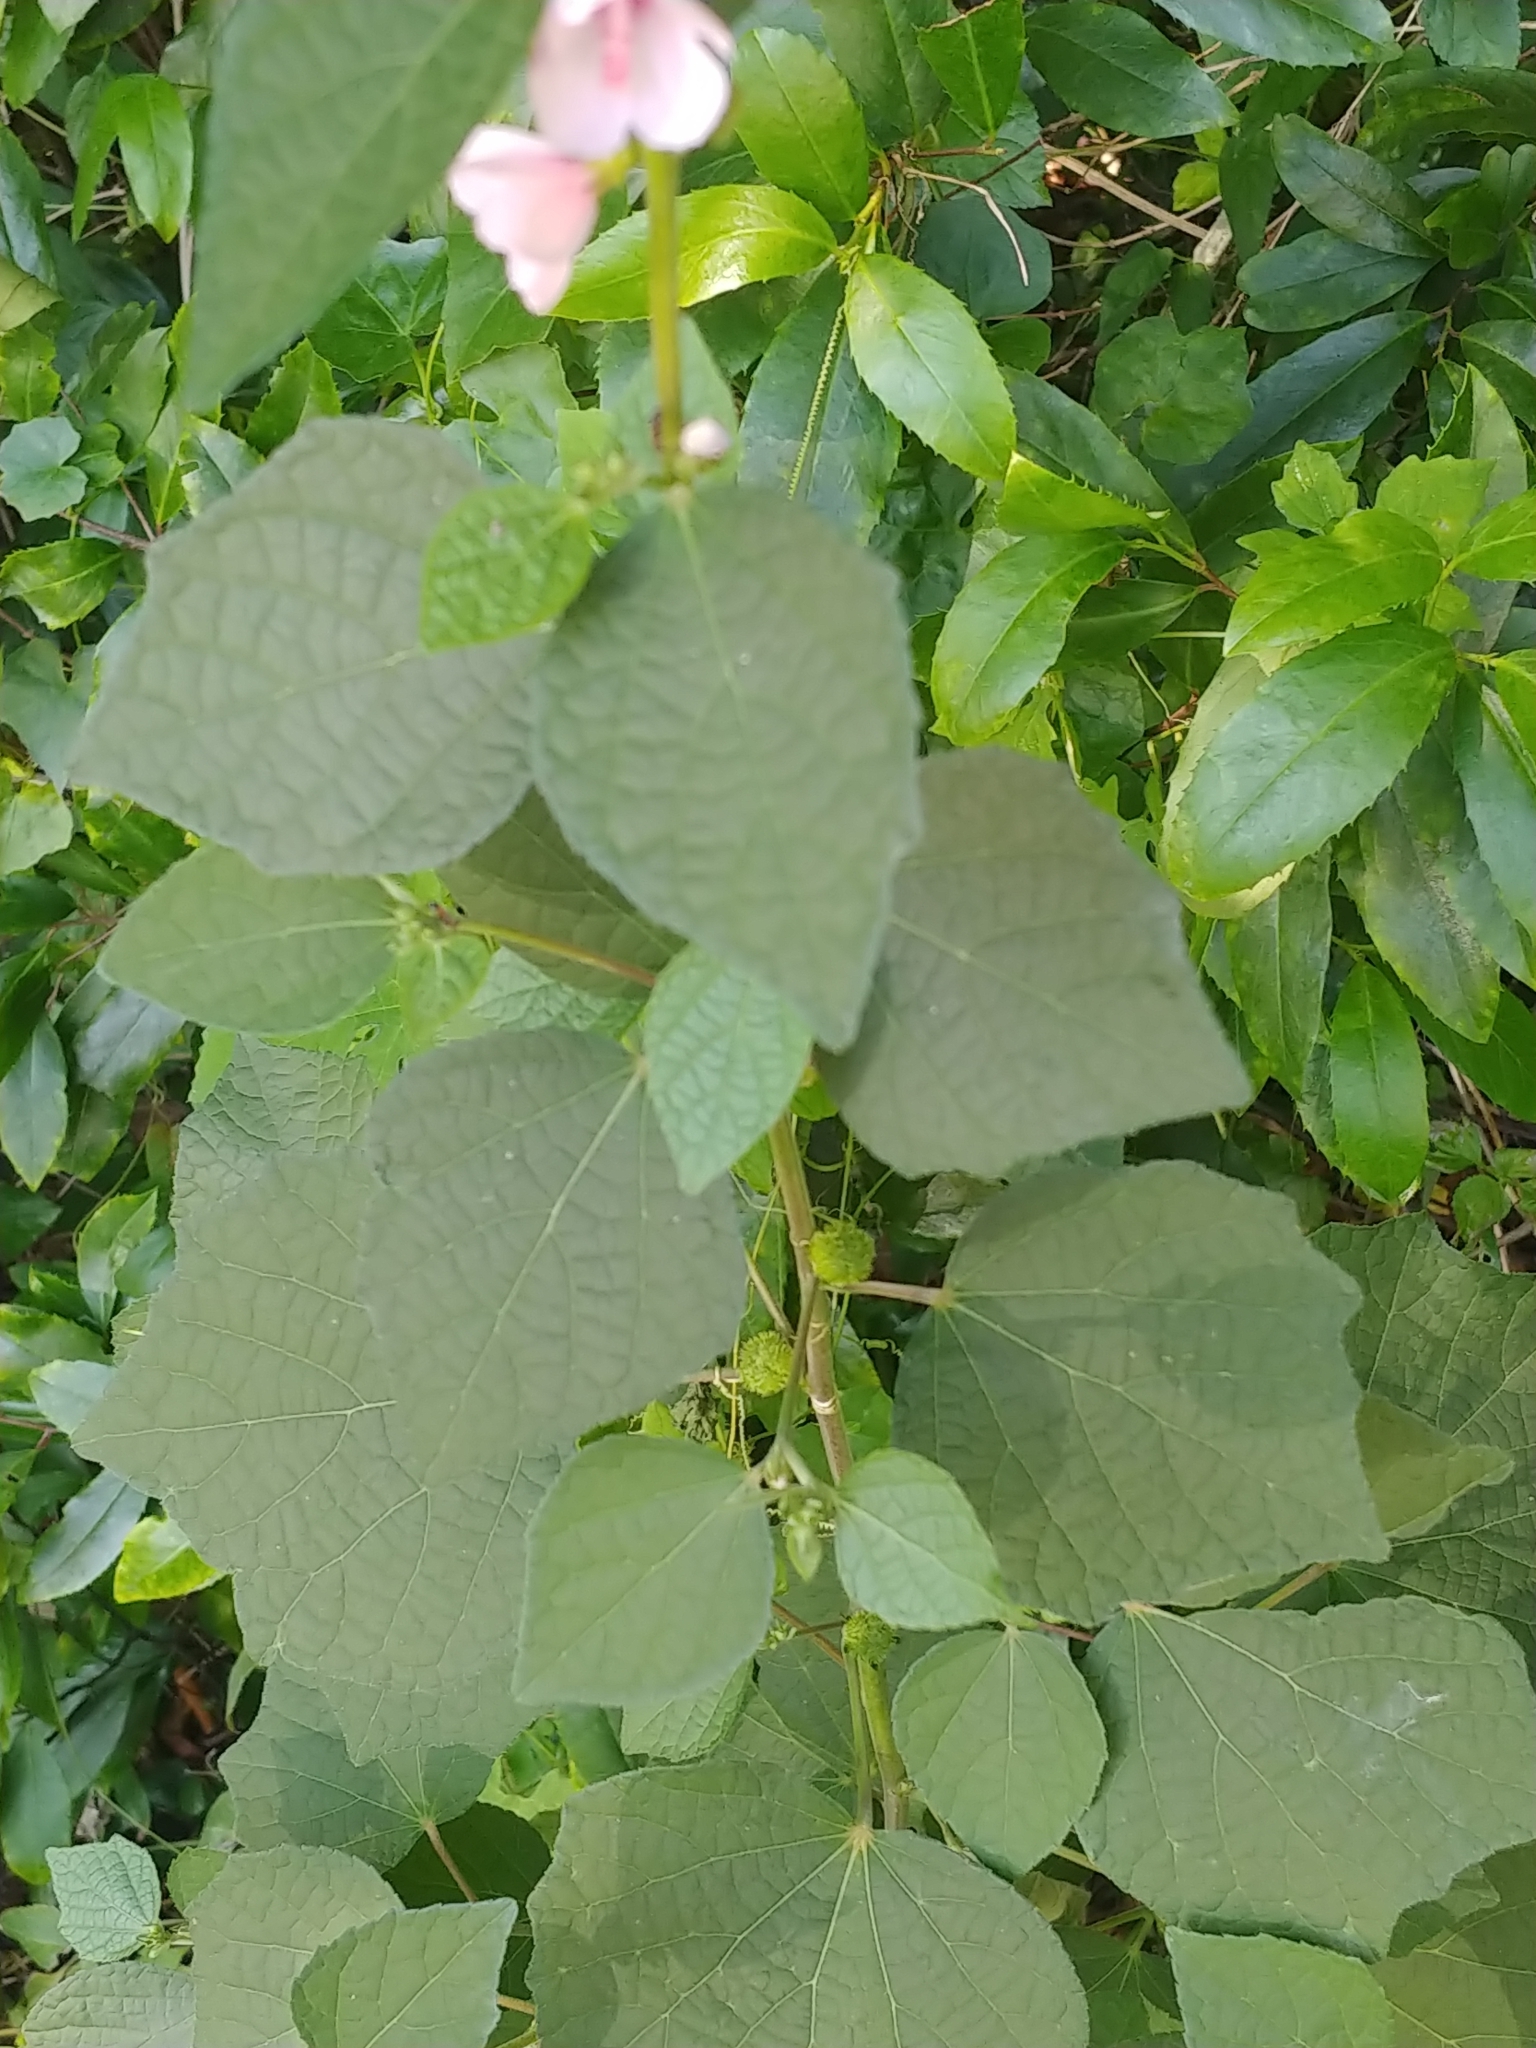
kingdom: Plantae
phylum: Tracheophyta
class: Magnoliopsida
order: Malvales
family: Malvaceae
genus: Urena
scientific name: Urena lobata
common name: Caesarweed
